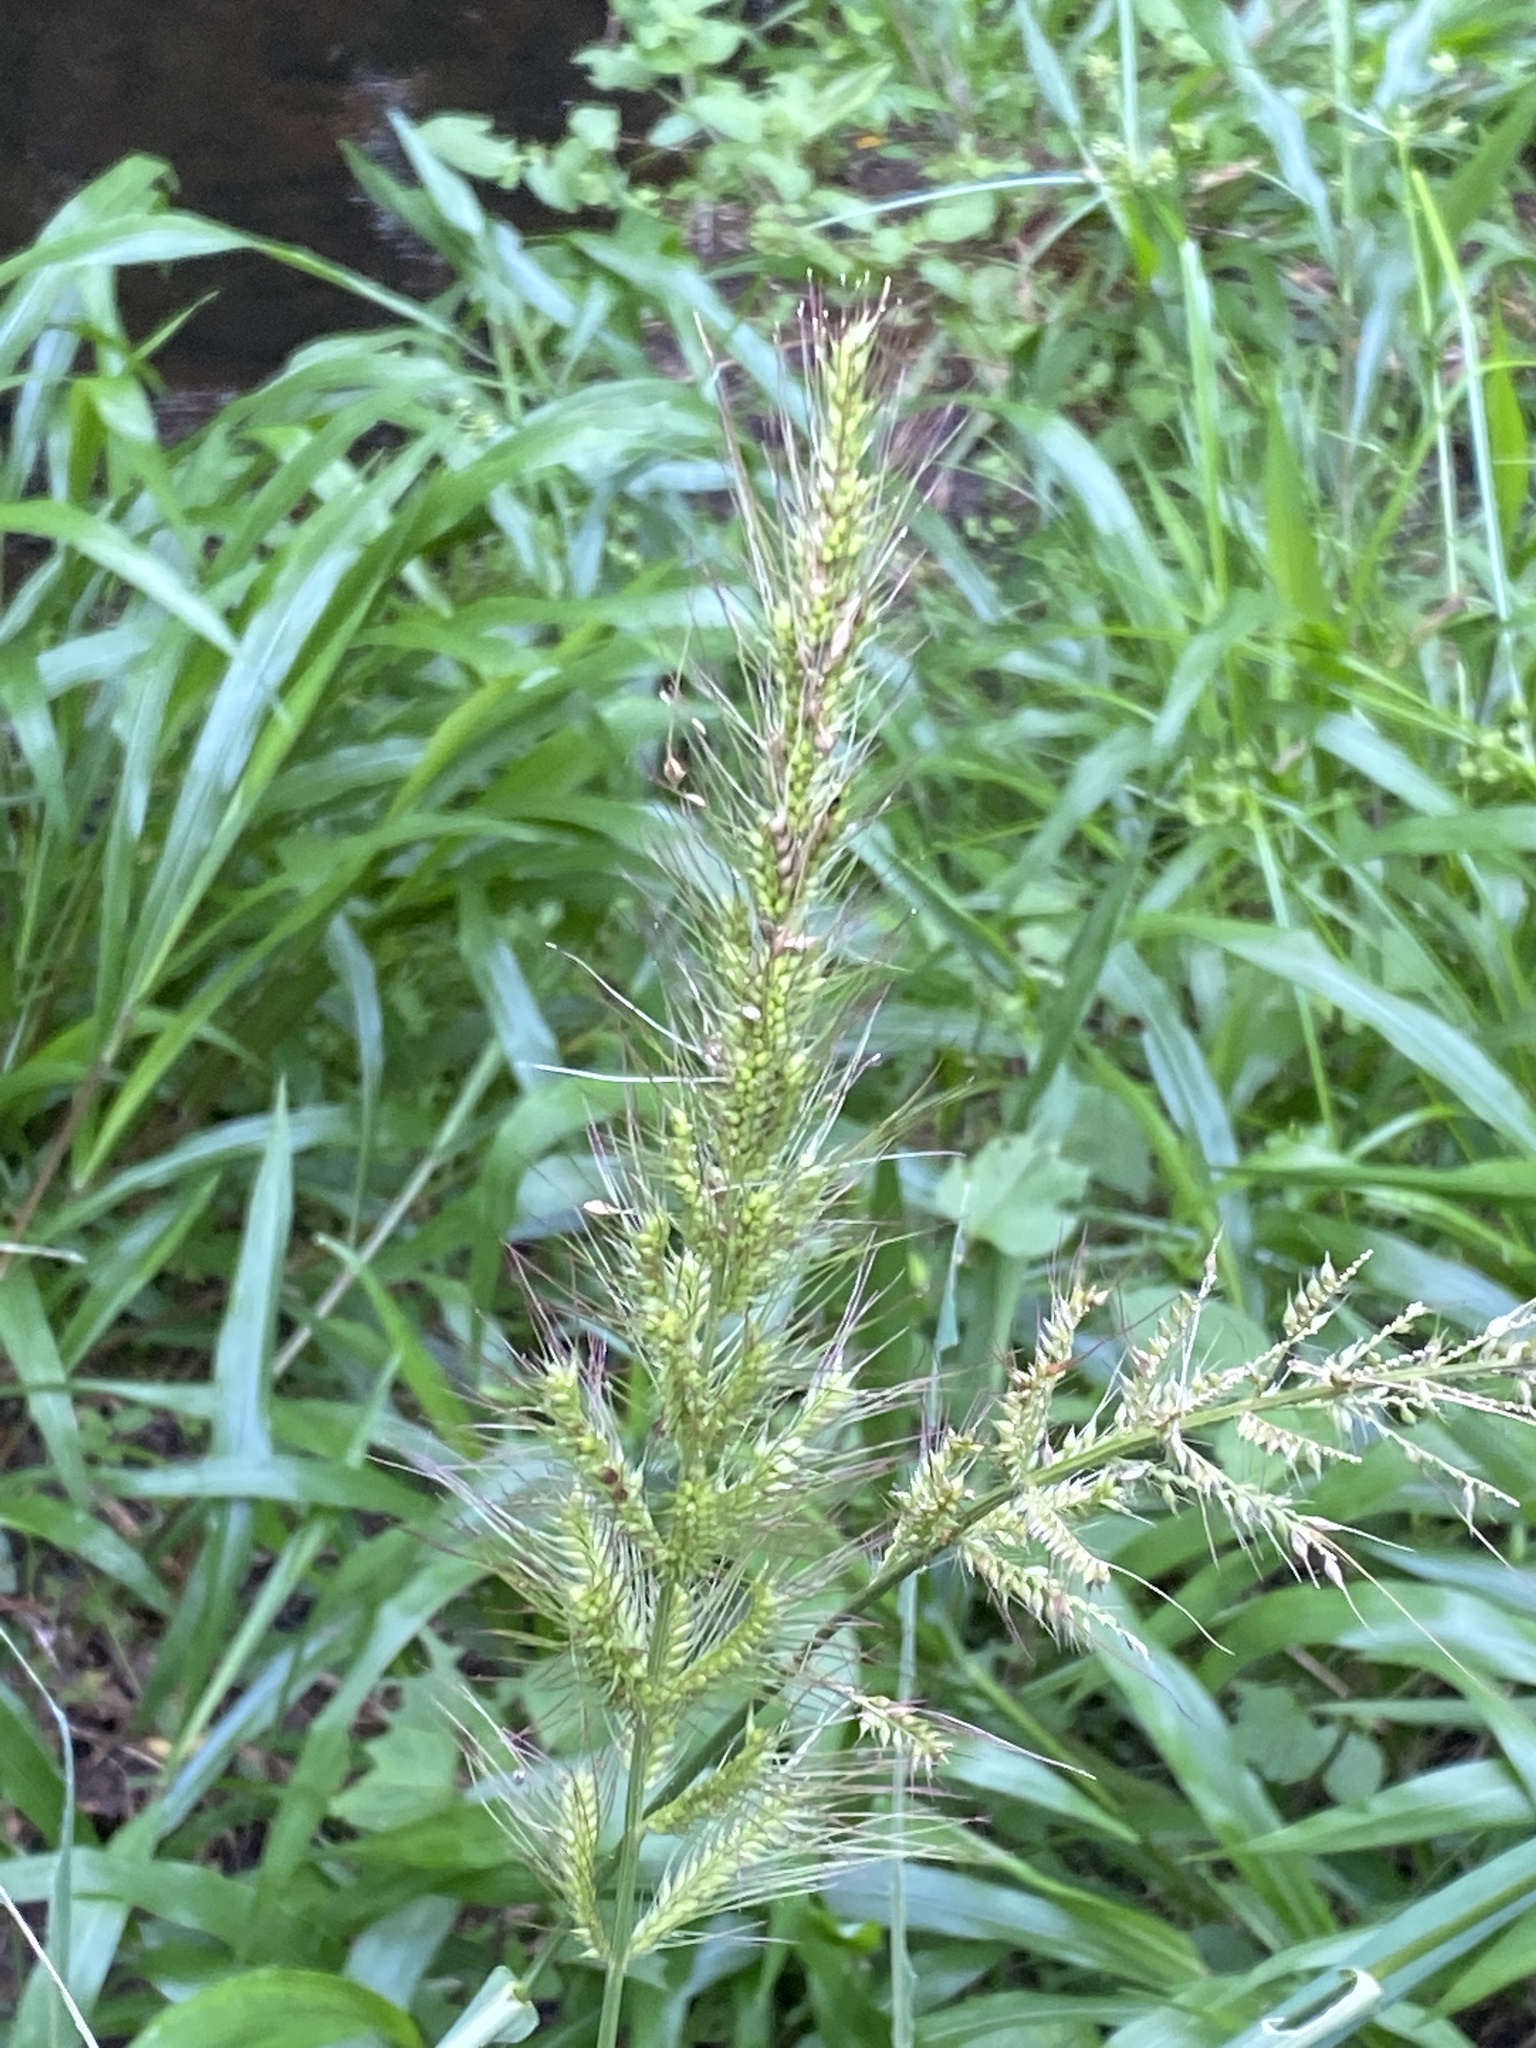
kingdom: Plantae
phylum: Tracheophyta
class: Liliopsida
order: Poales
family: Poaceae
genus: Echinochloa
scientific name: Echinochloa telmatophila
